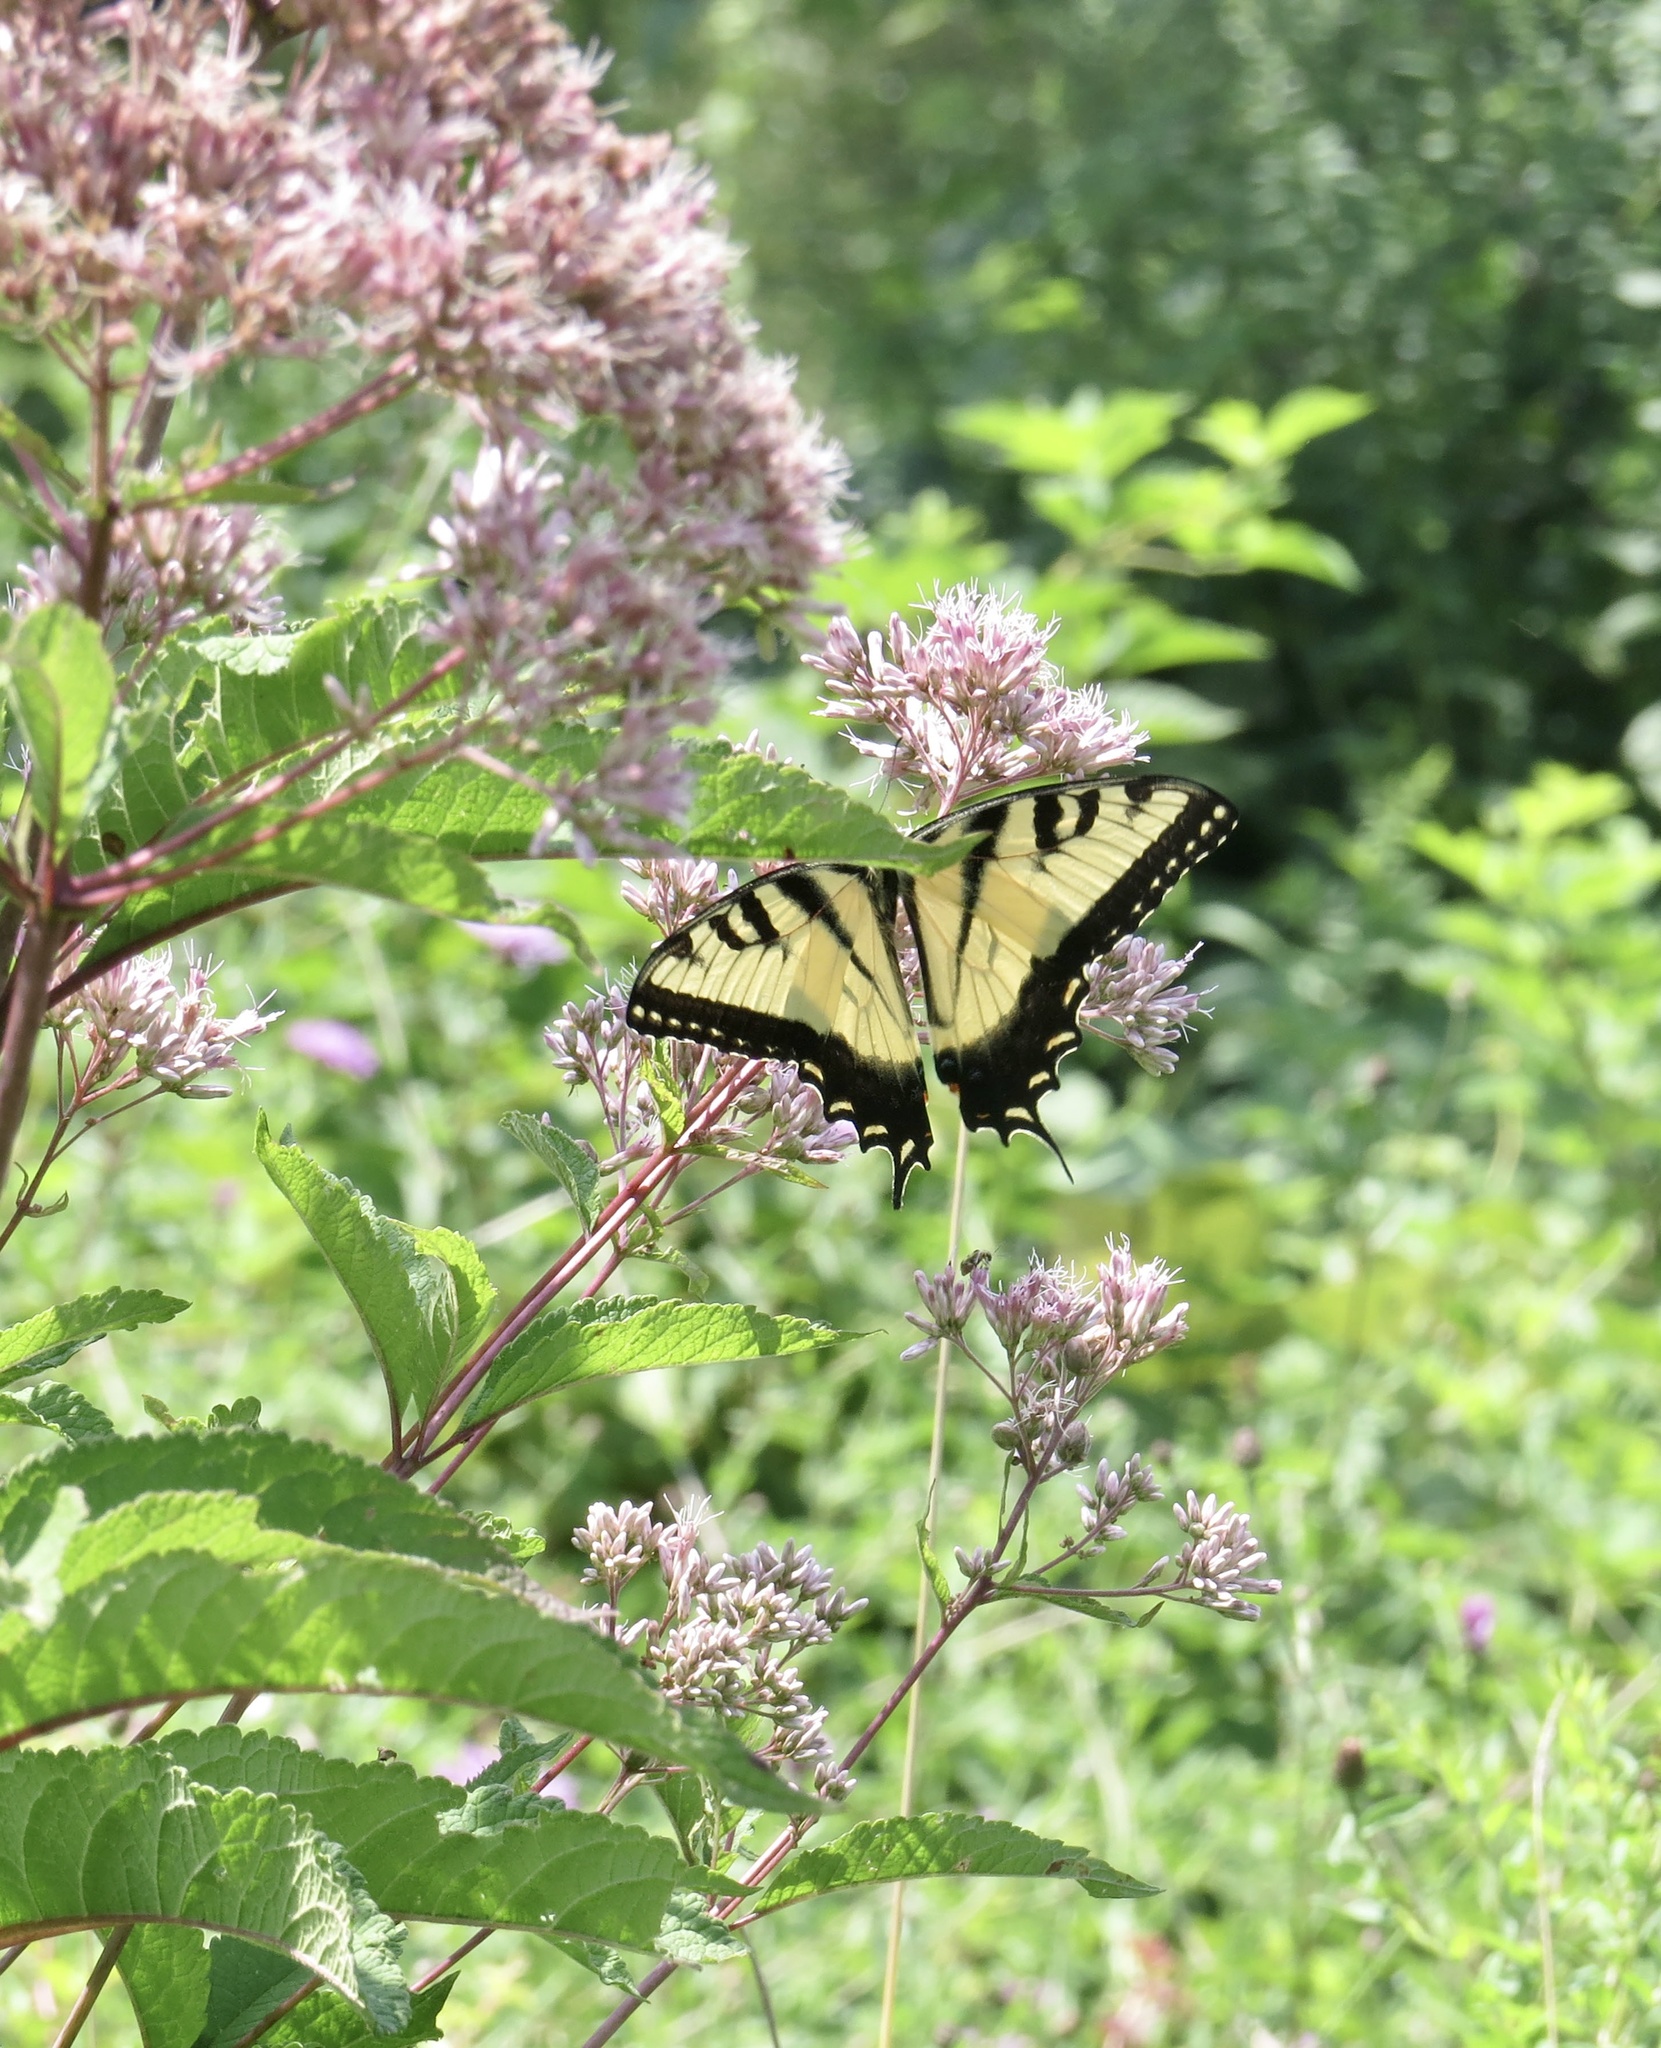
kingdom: Animalia
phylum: Arthropoda
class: Insecta
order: Lepidoptera
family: Papilionidae
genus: Papilio
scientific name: Papilio glaucus
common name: Tiger swallowtail
